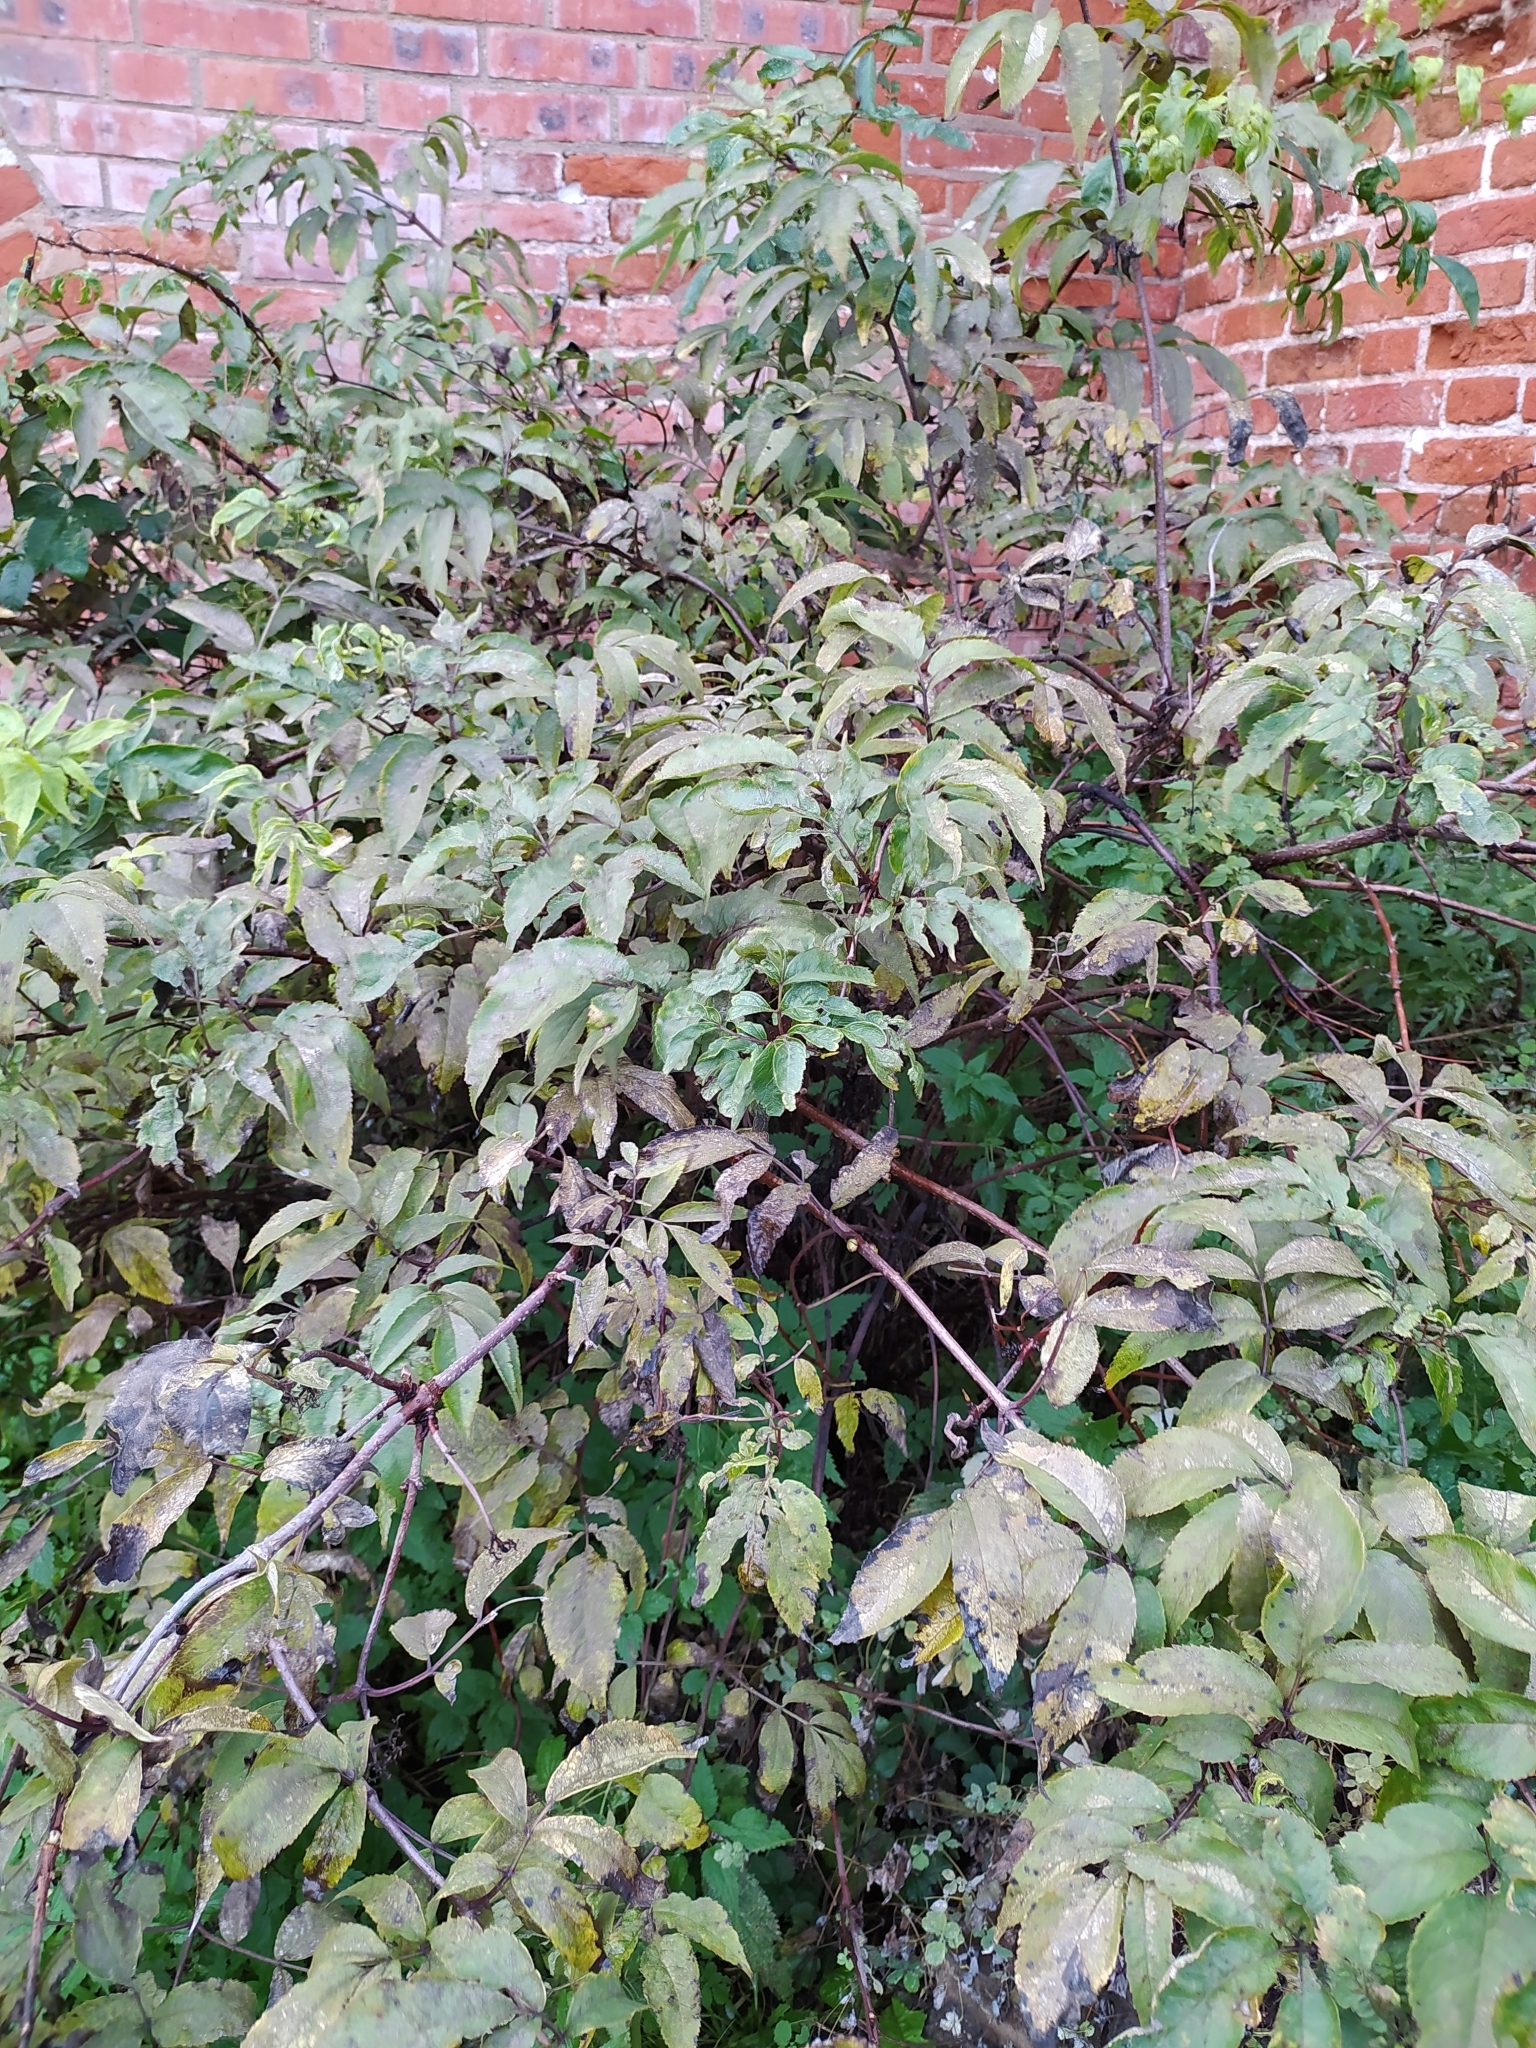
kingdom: Plantae
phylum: Tracheophyta
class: Magnoliopsida
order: Dipsacales
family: Viburnaceae
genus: Sambucus
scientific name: Sambucus racemosa
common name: Red-berried elder
